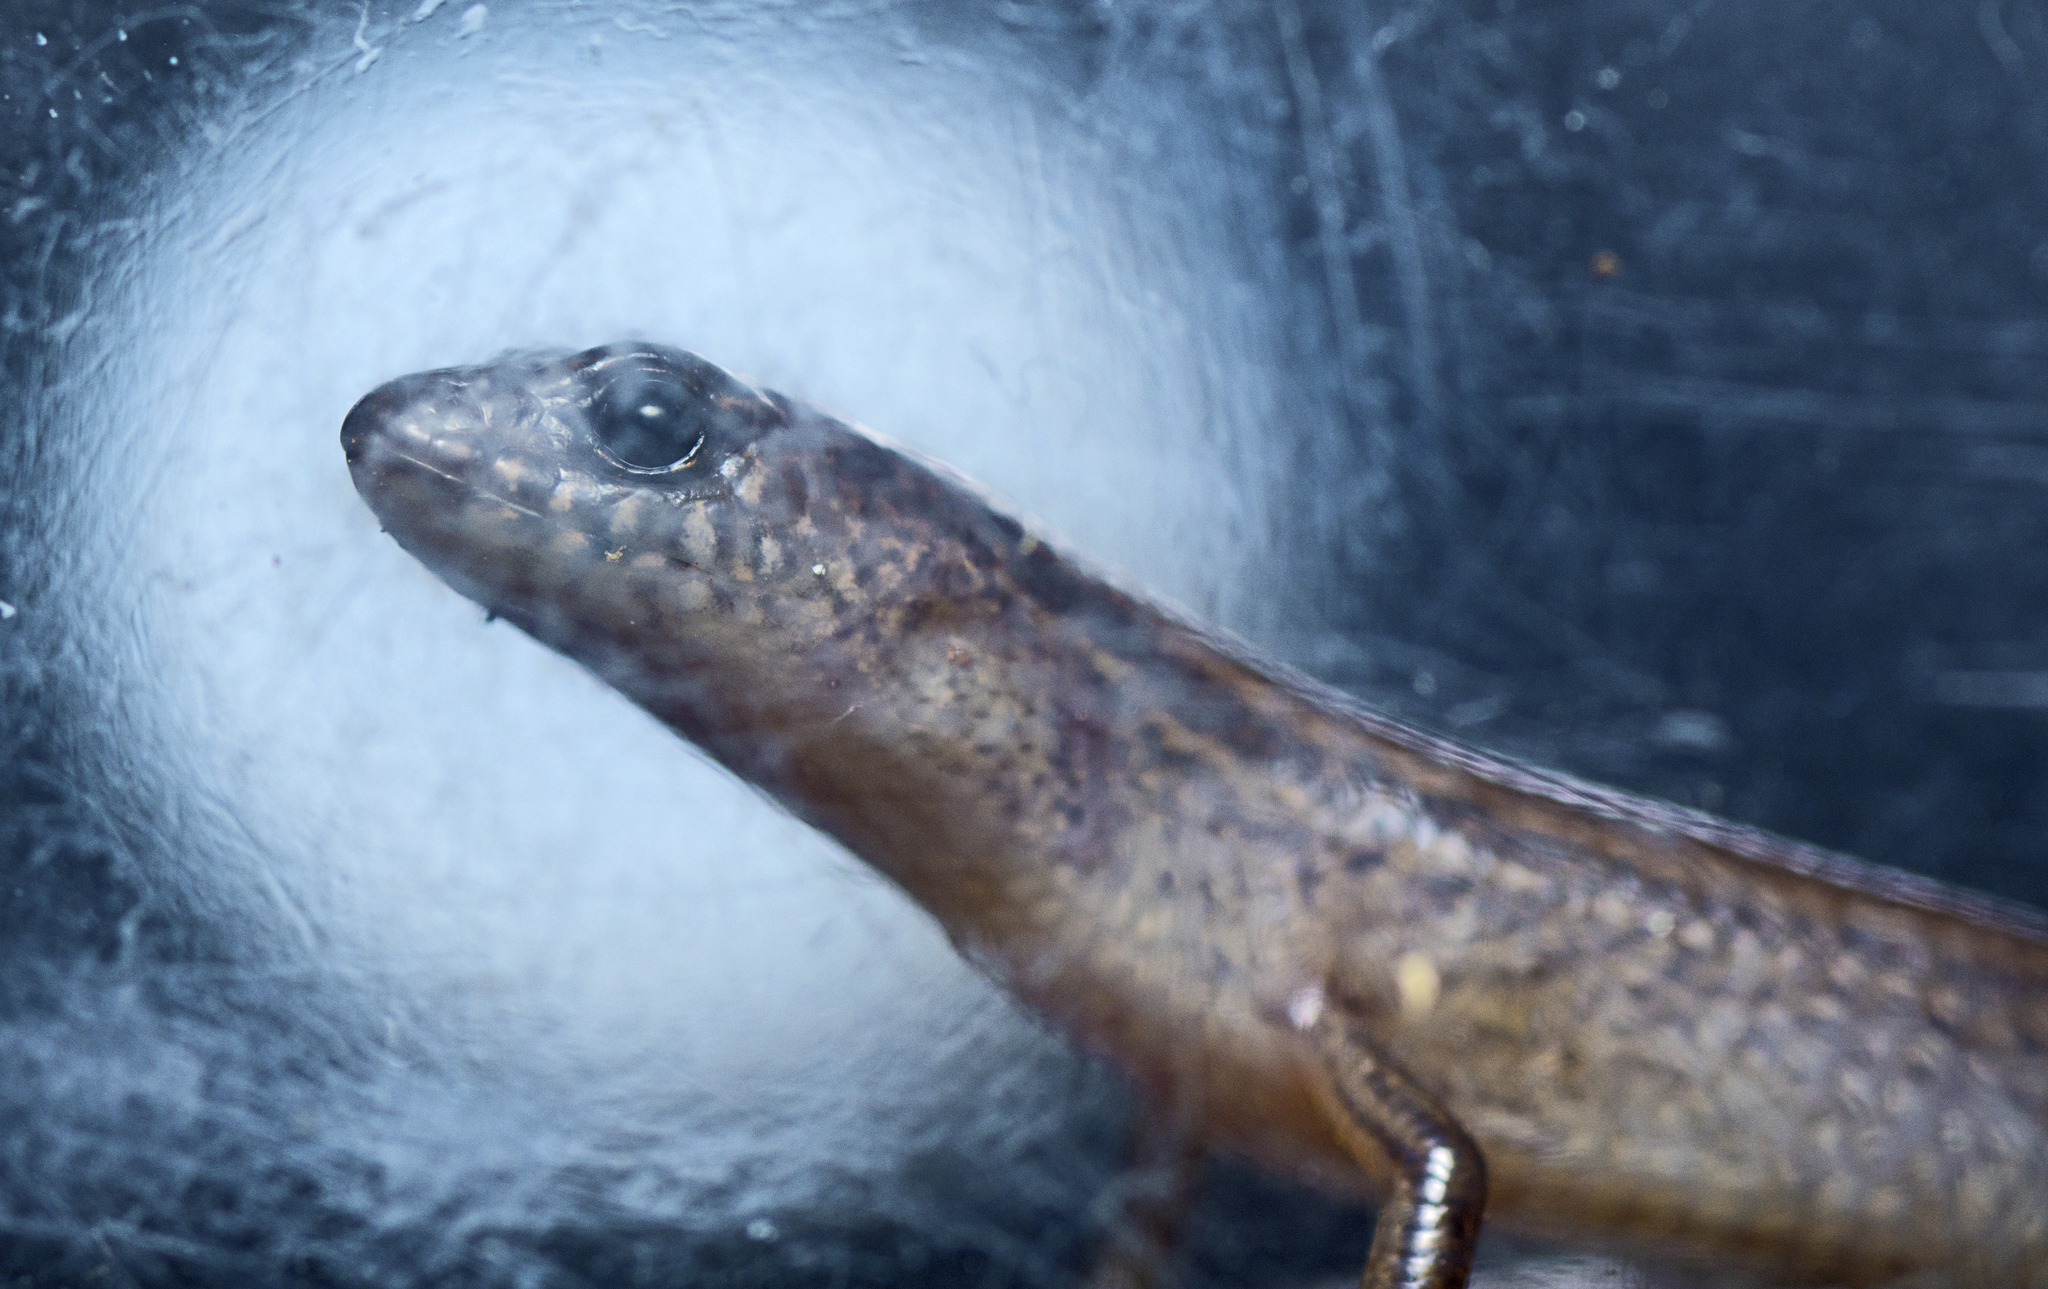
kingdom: Animalia
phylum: Chordata
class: Squamata
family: Scincidae
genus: Calyptotis
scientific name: Calyptotis scutirostrum
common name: Scute-snouted calyptotis
